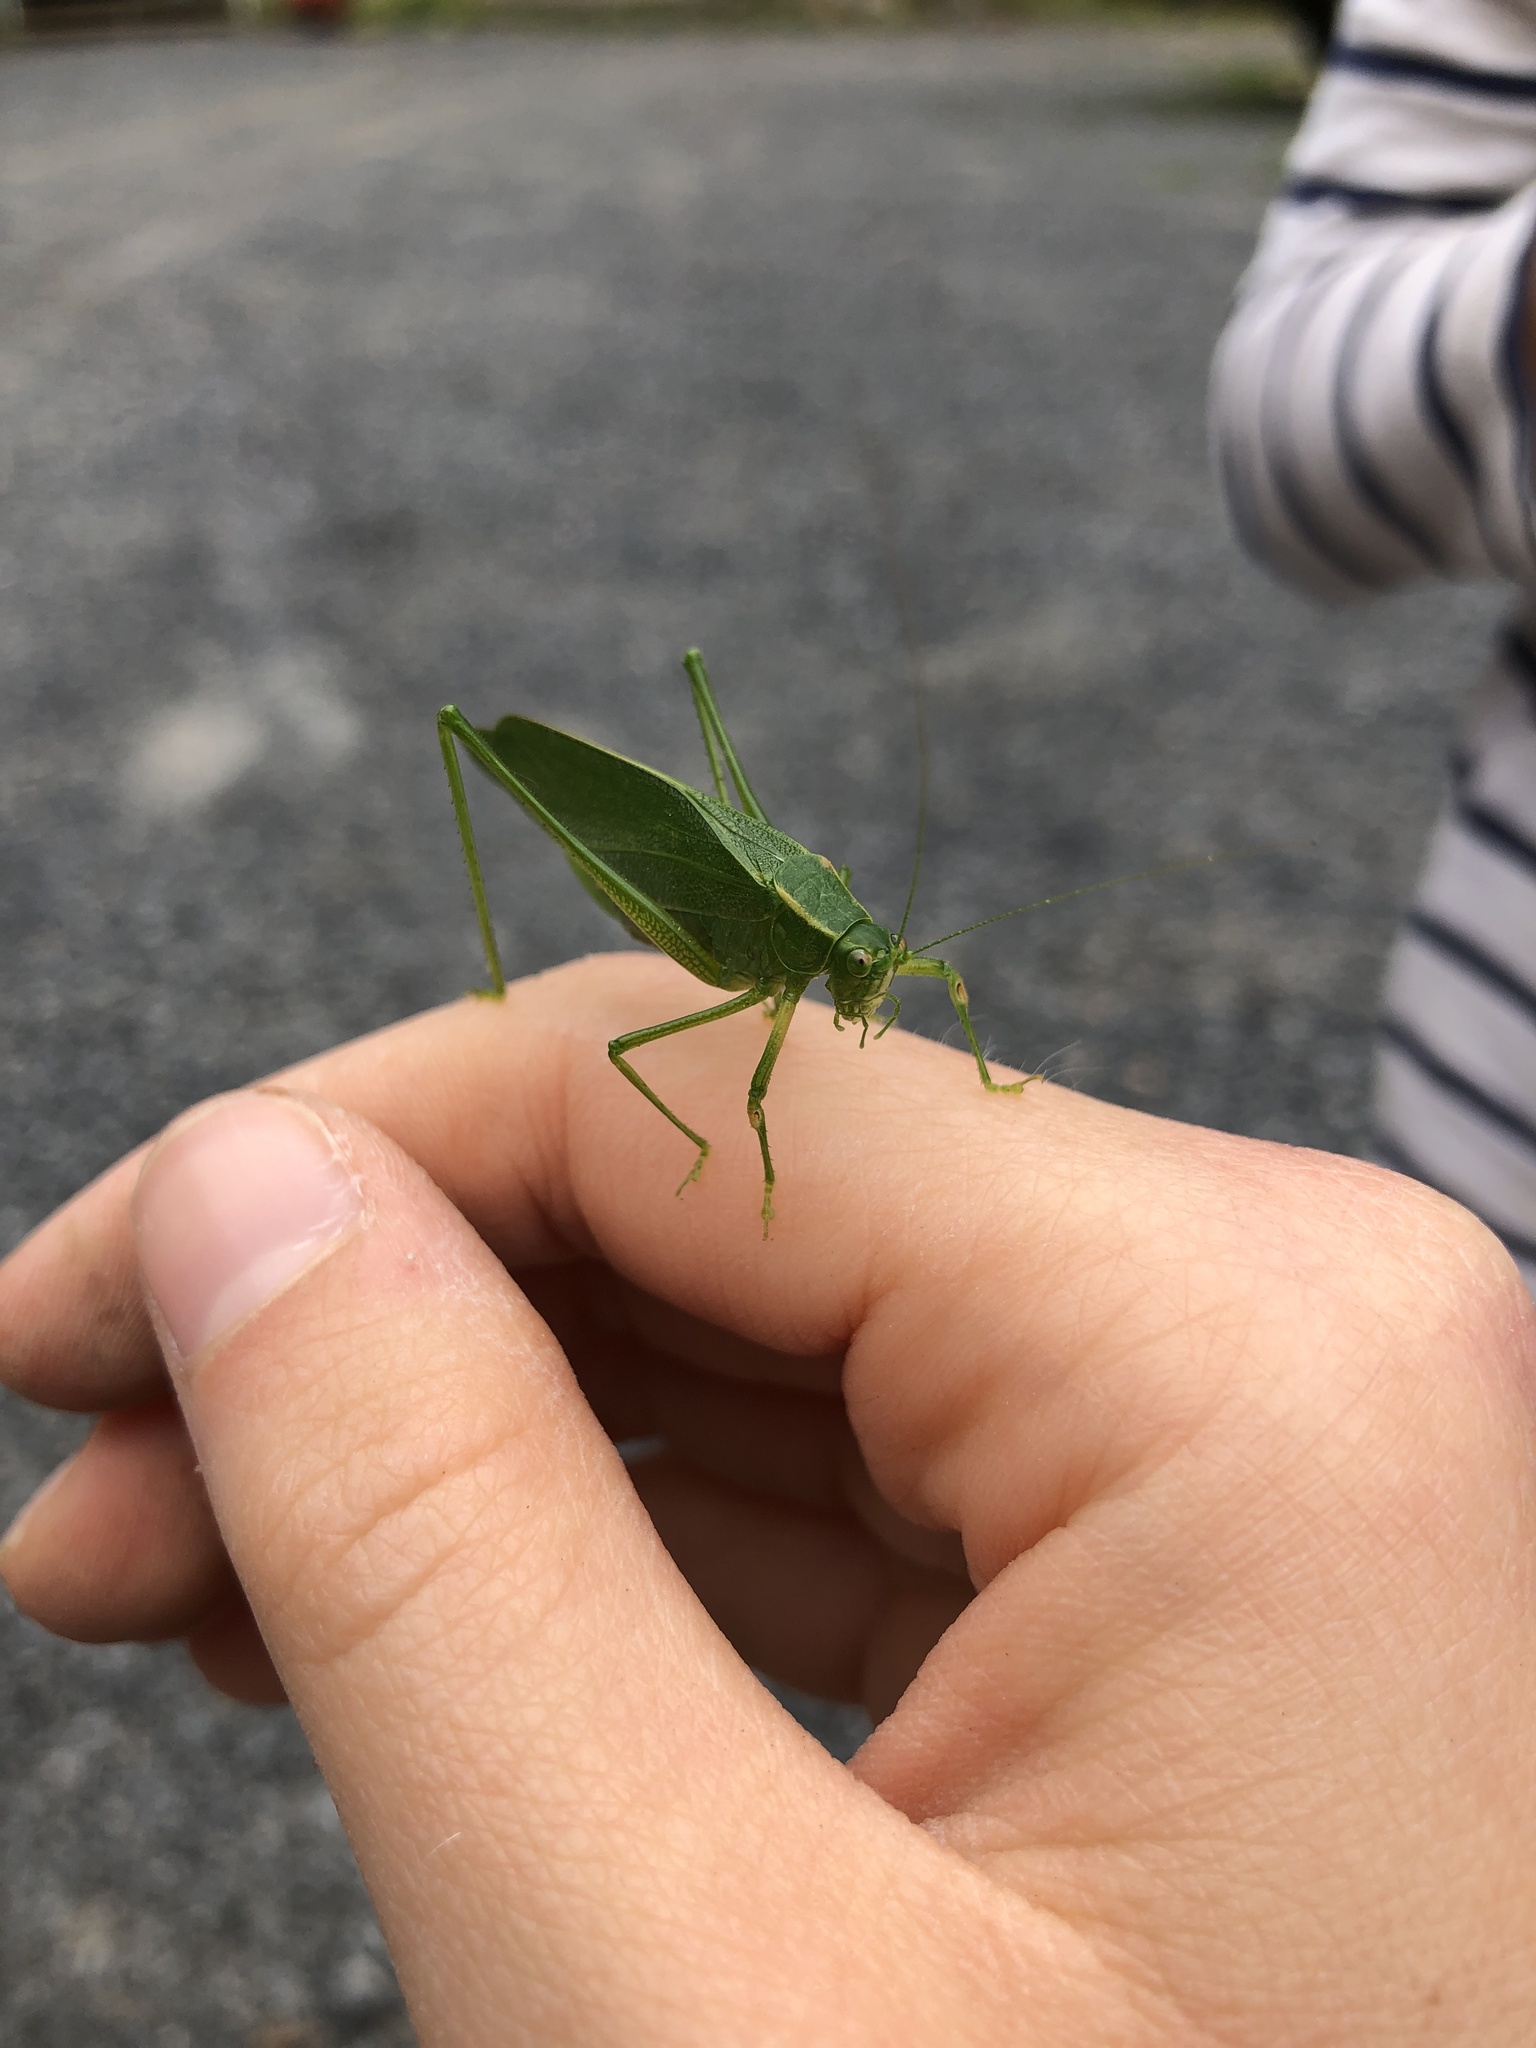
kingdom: Animalia
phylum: Arthropoda
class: Insecta
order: Orthoptera
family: Tettigoniidae
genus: Scudderia
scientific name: Scudderia septentrionalis
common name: Northern bush-katydid
